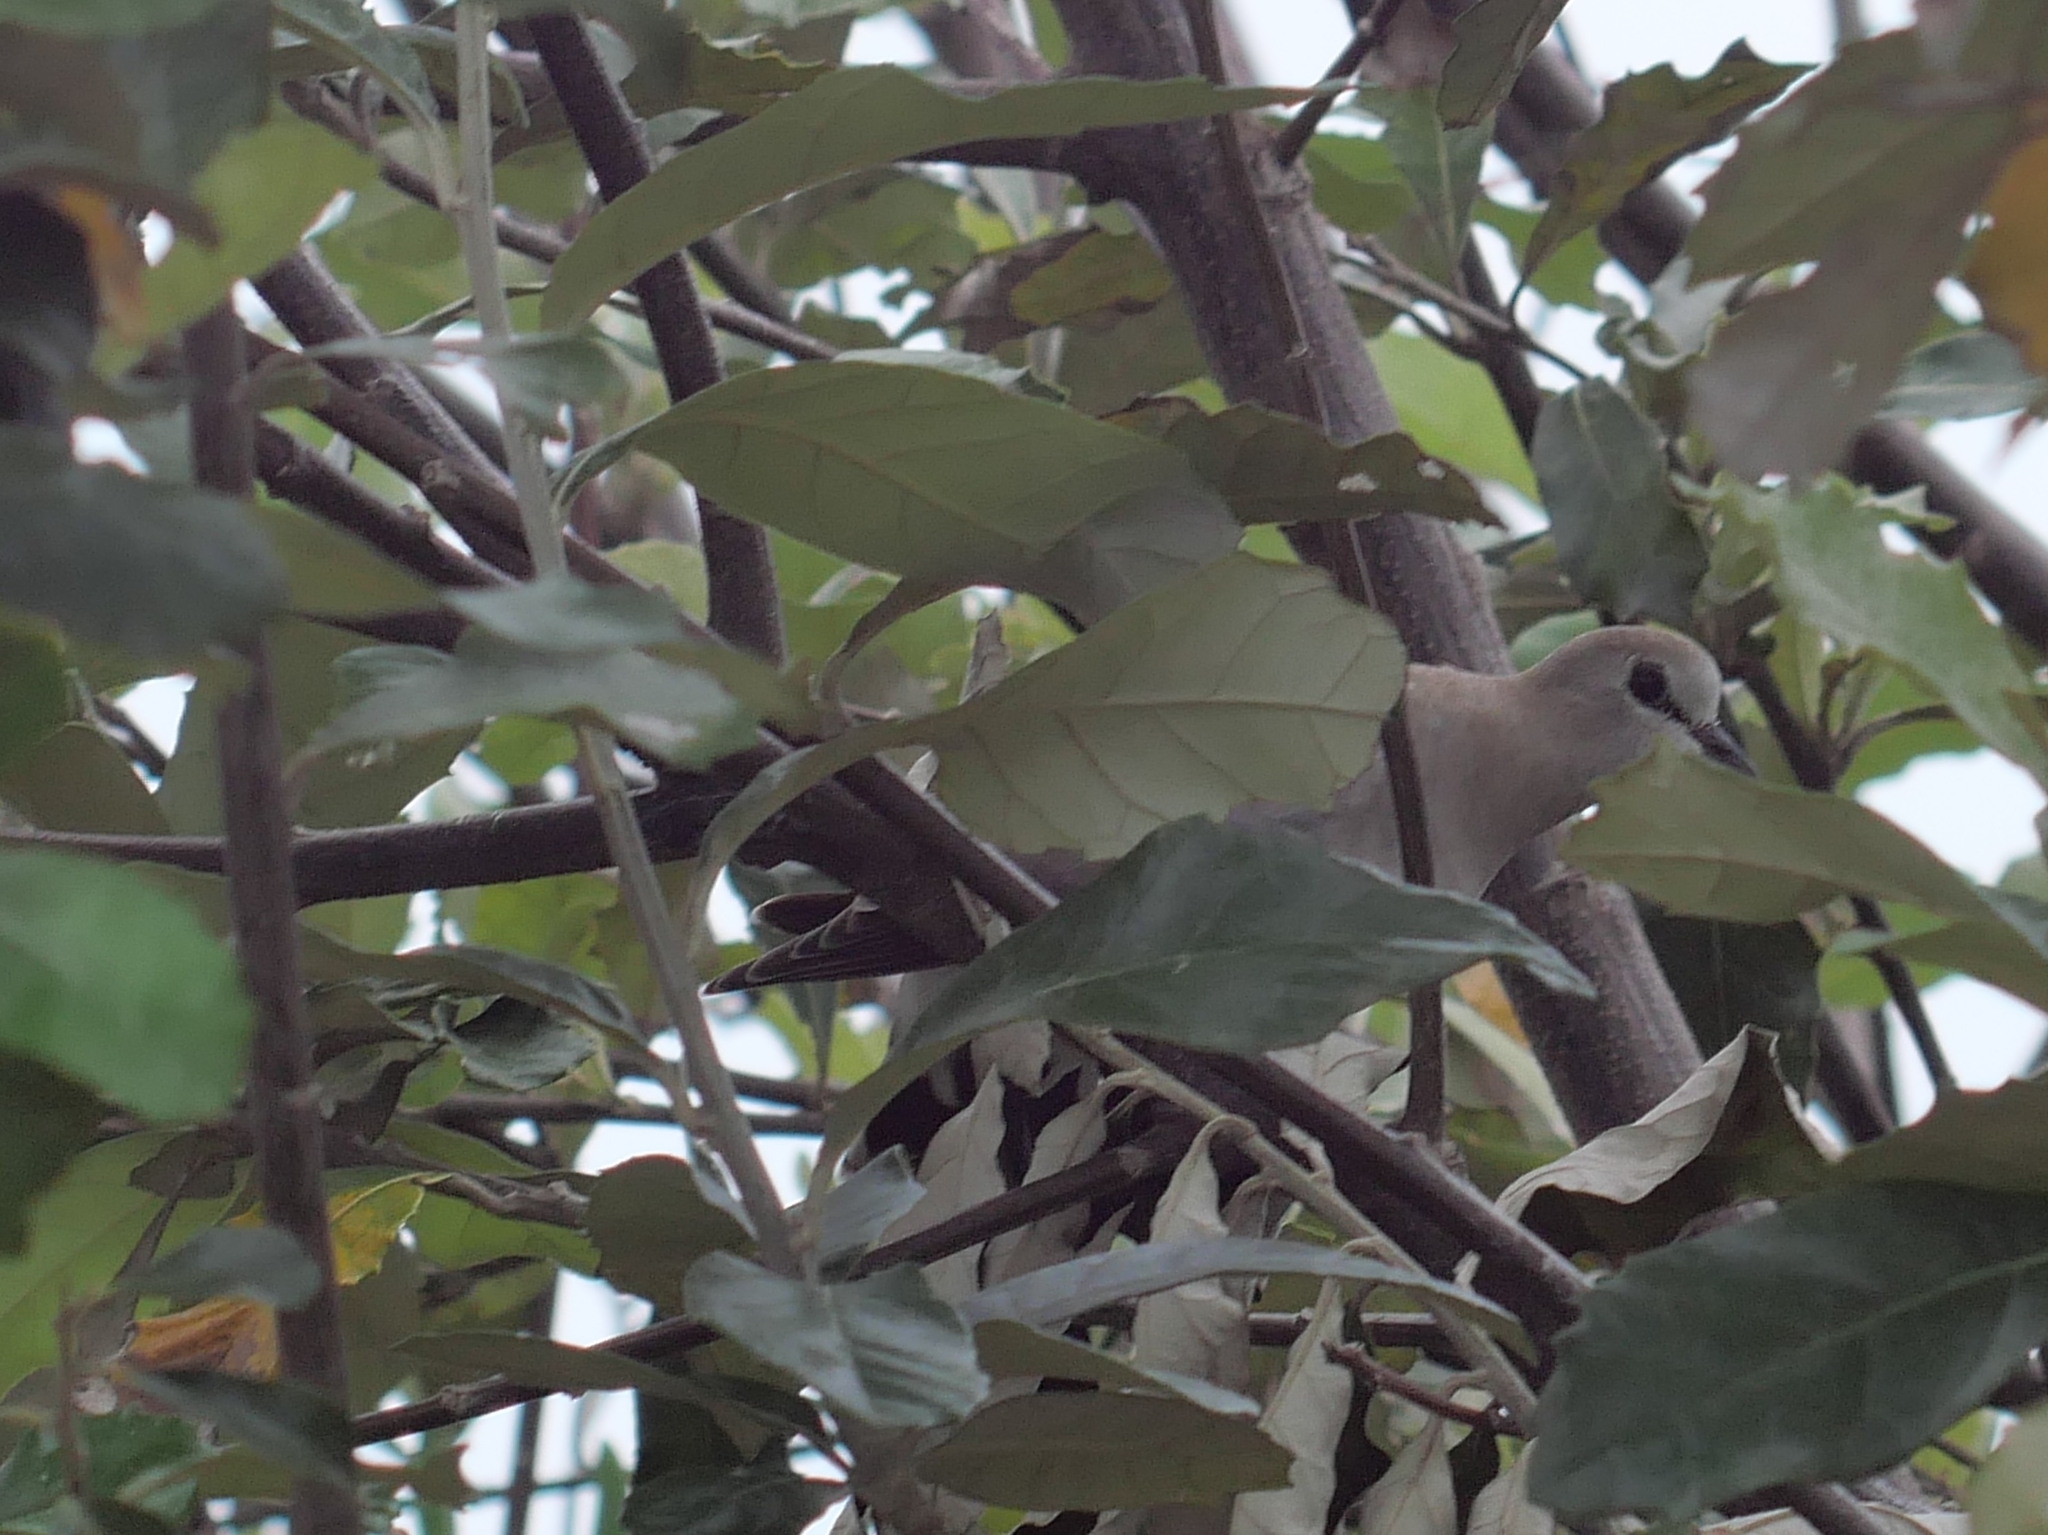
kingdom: Animalia
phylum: Chordata
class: Aves
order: Columbiformes
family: Columbidae
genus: Oena
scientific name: Oena capensis
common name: Namaqua dove
